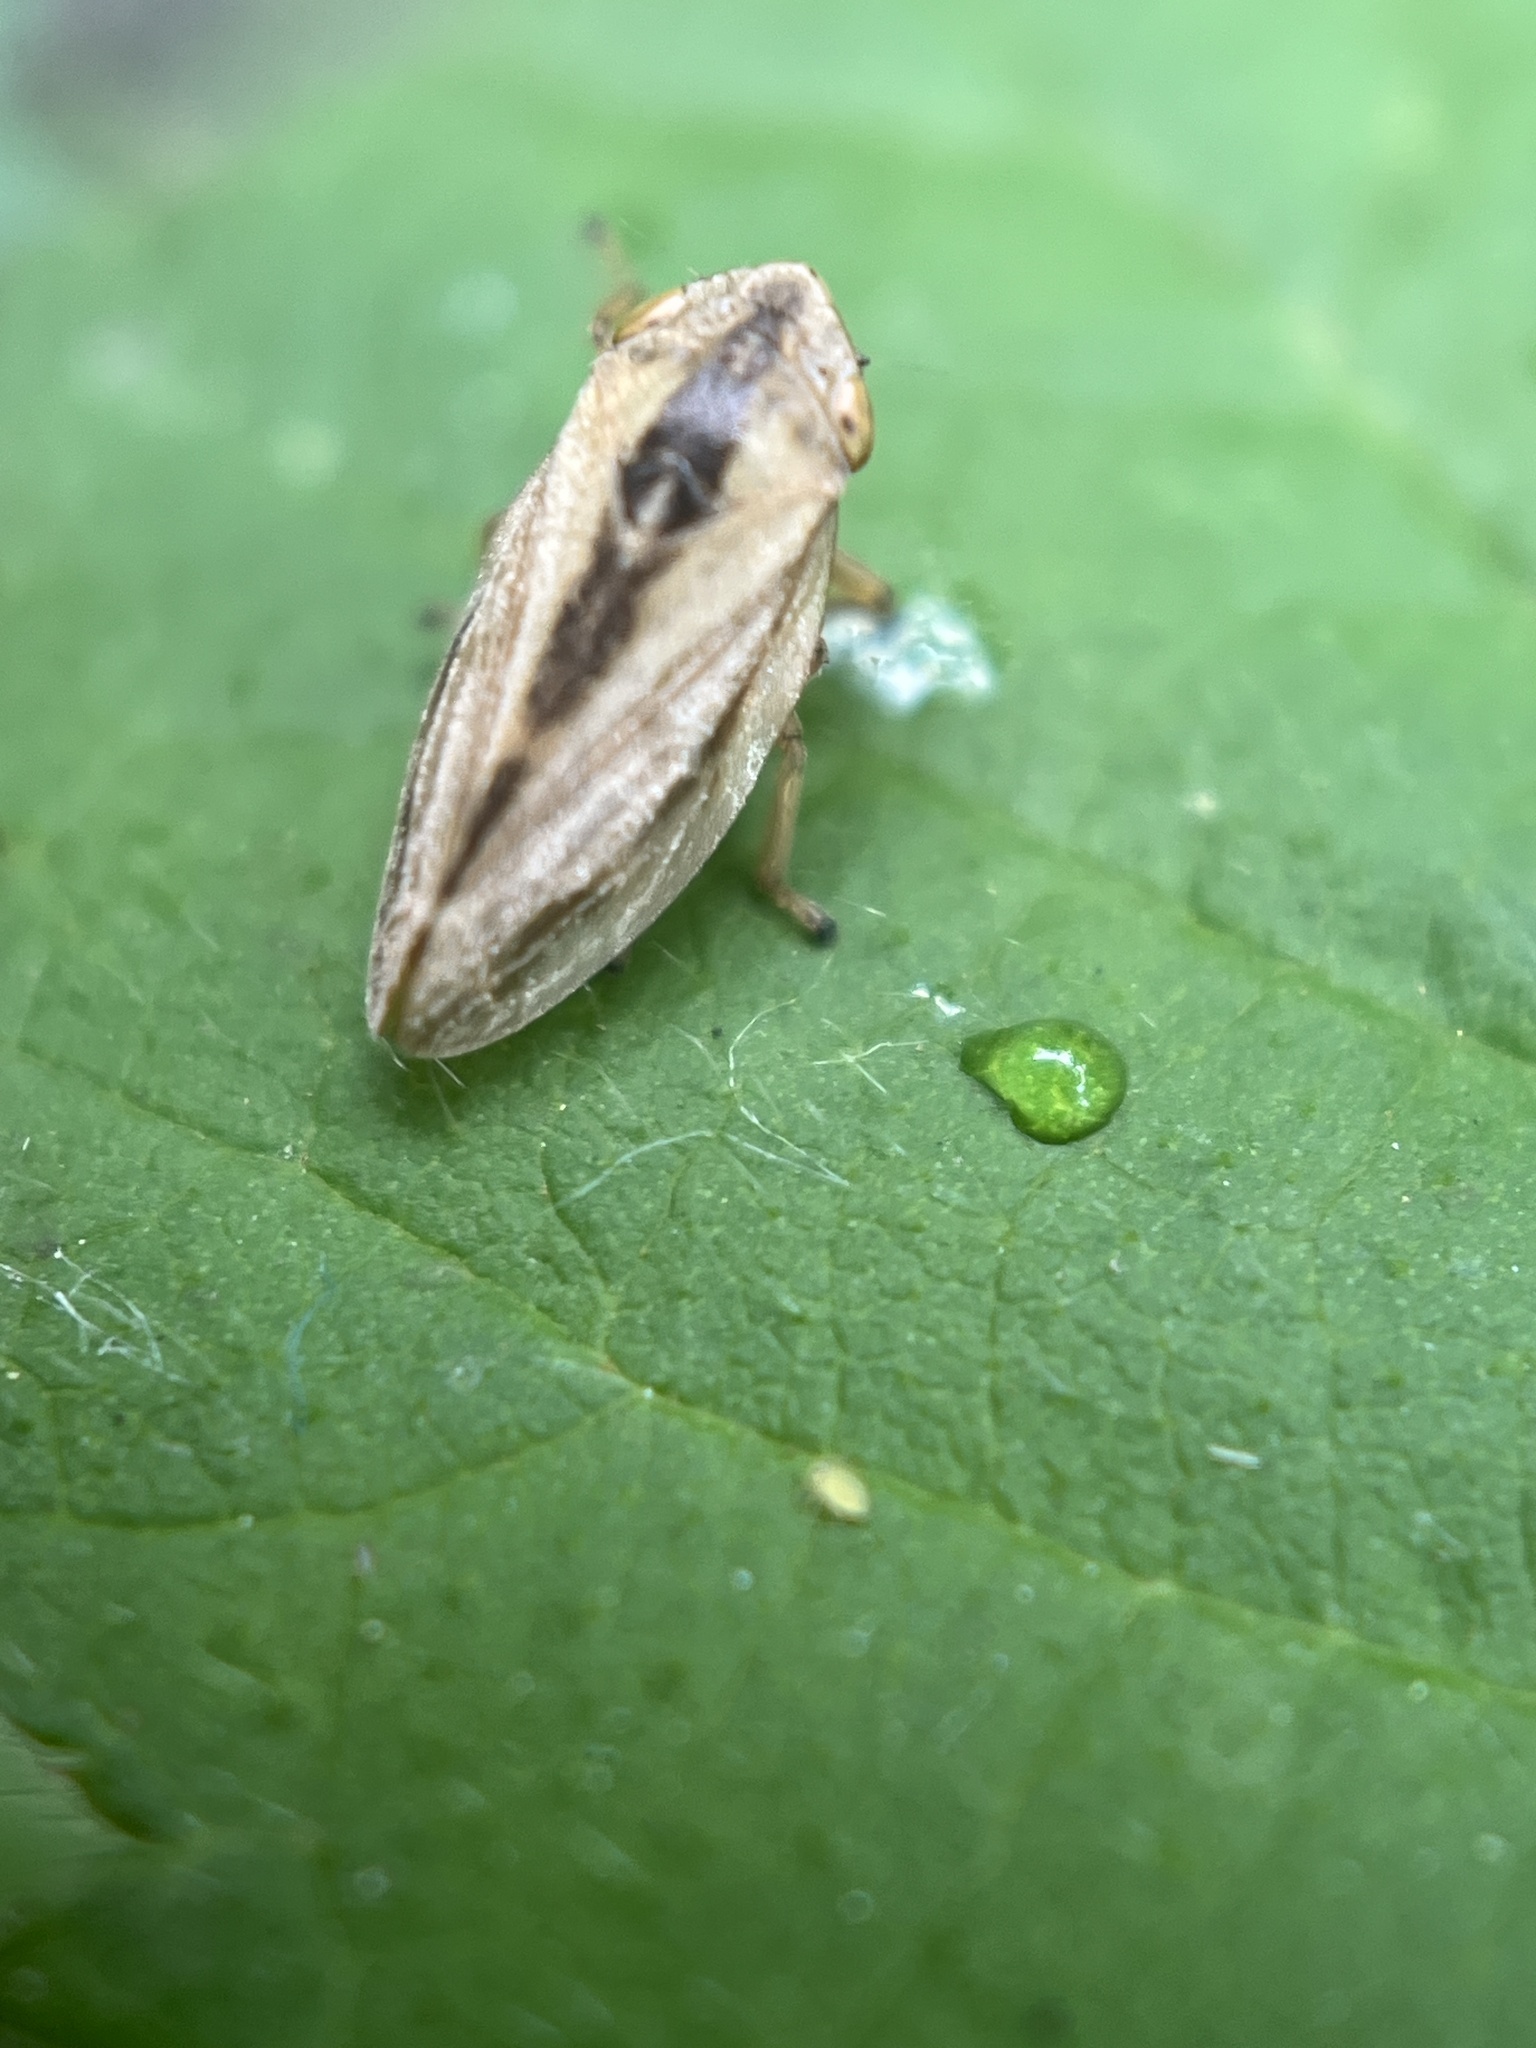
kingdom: Animalia
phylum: Arthropoda
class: Insecta
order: Hemiptera
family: Aphrophoridae
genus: Philaenus
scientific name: Philaenus spumarius
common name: Meadow spittlebug
